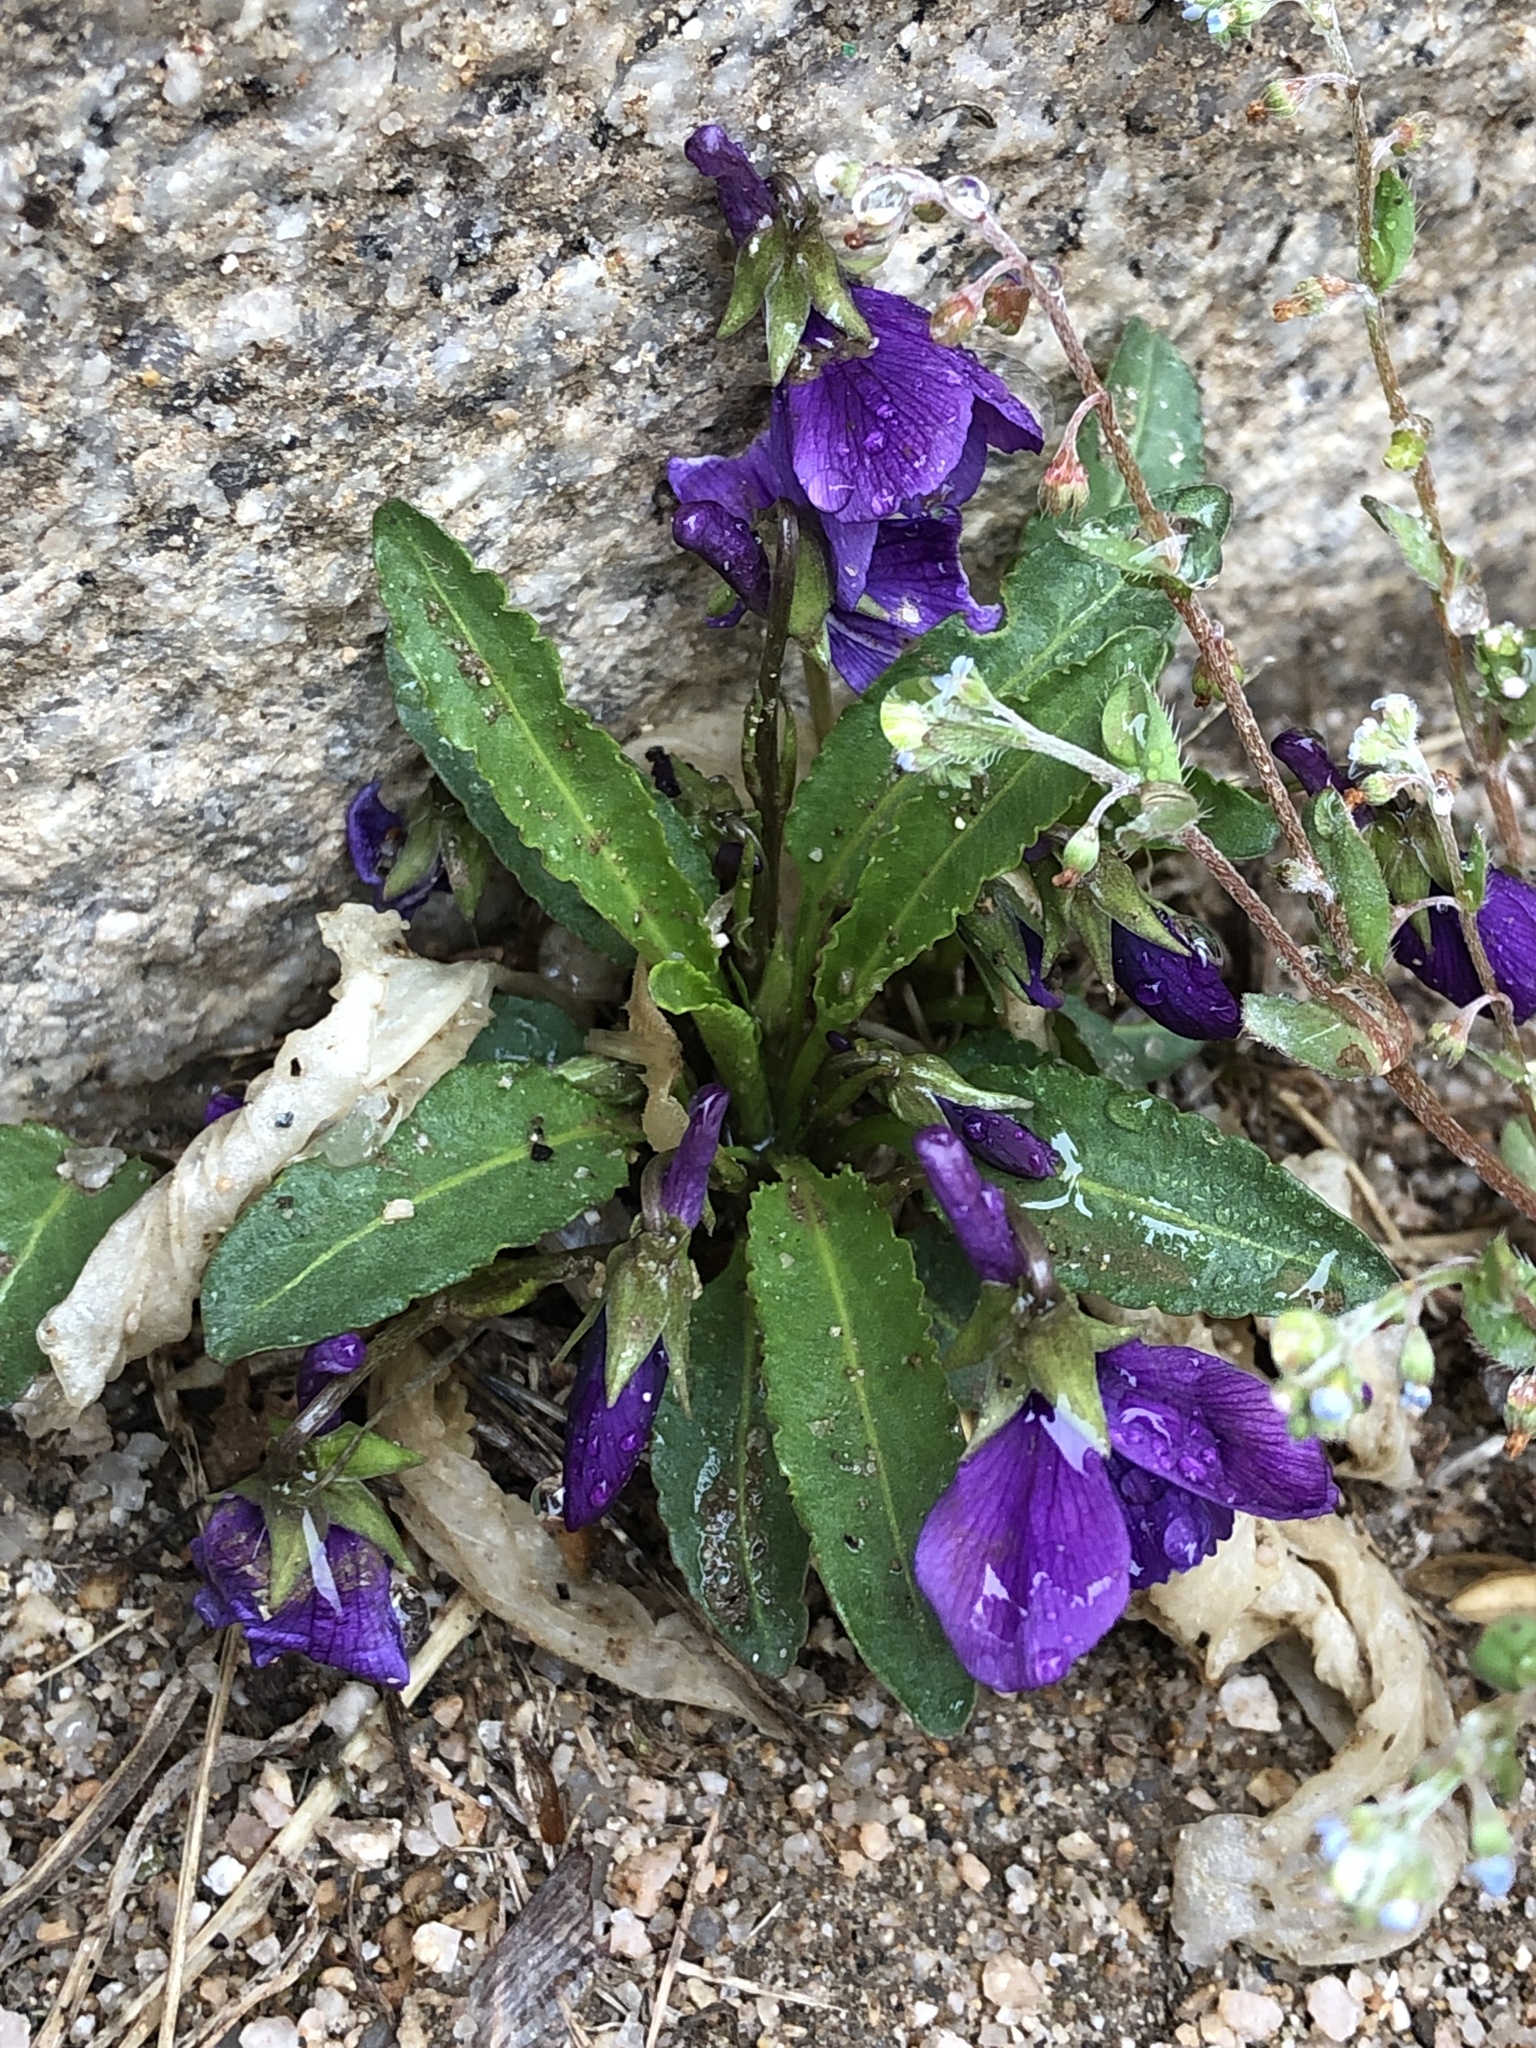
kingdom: Plantae
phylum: Tracheophyta
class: Magnoliopsida
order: Malpighiales
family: Violaceae
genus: Viola
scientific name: Viola mandshurica
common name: Manchuria violet
